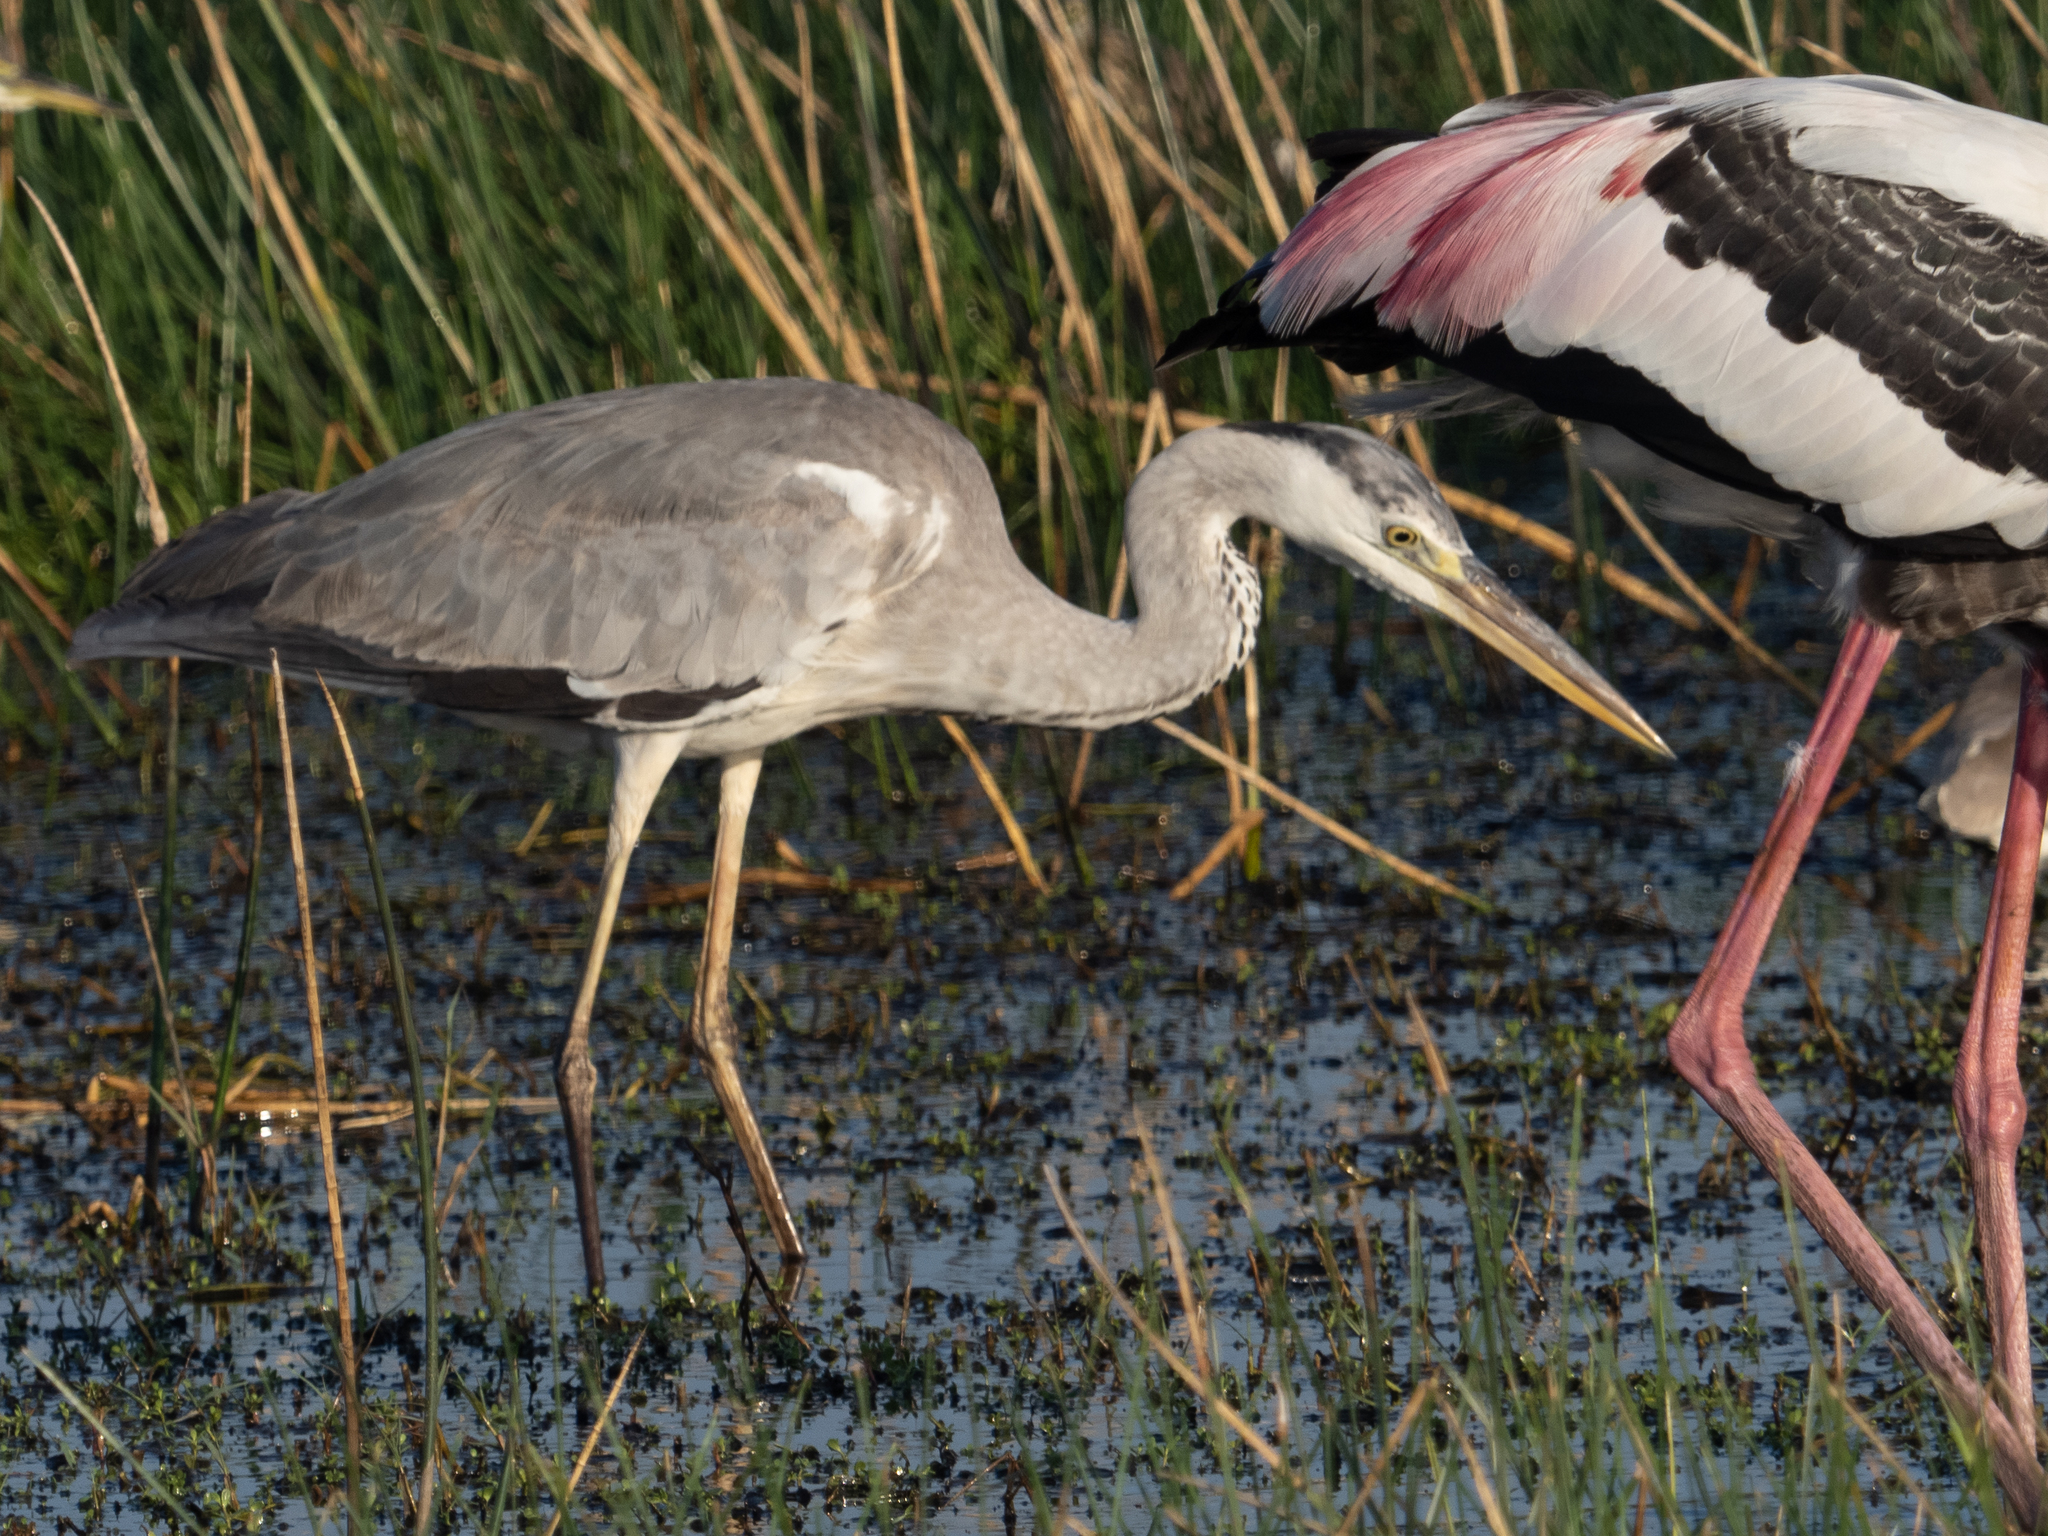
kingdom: Animalia
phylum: Chordata
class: Aves
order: Pelecaniformes
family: Ardeidae
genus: Ardea
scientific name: Ardea cinerea
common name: Grey heron
